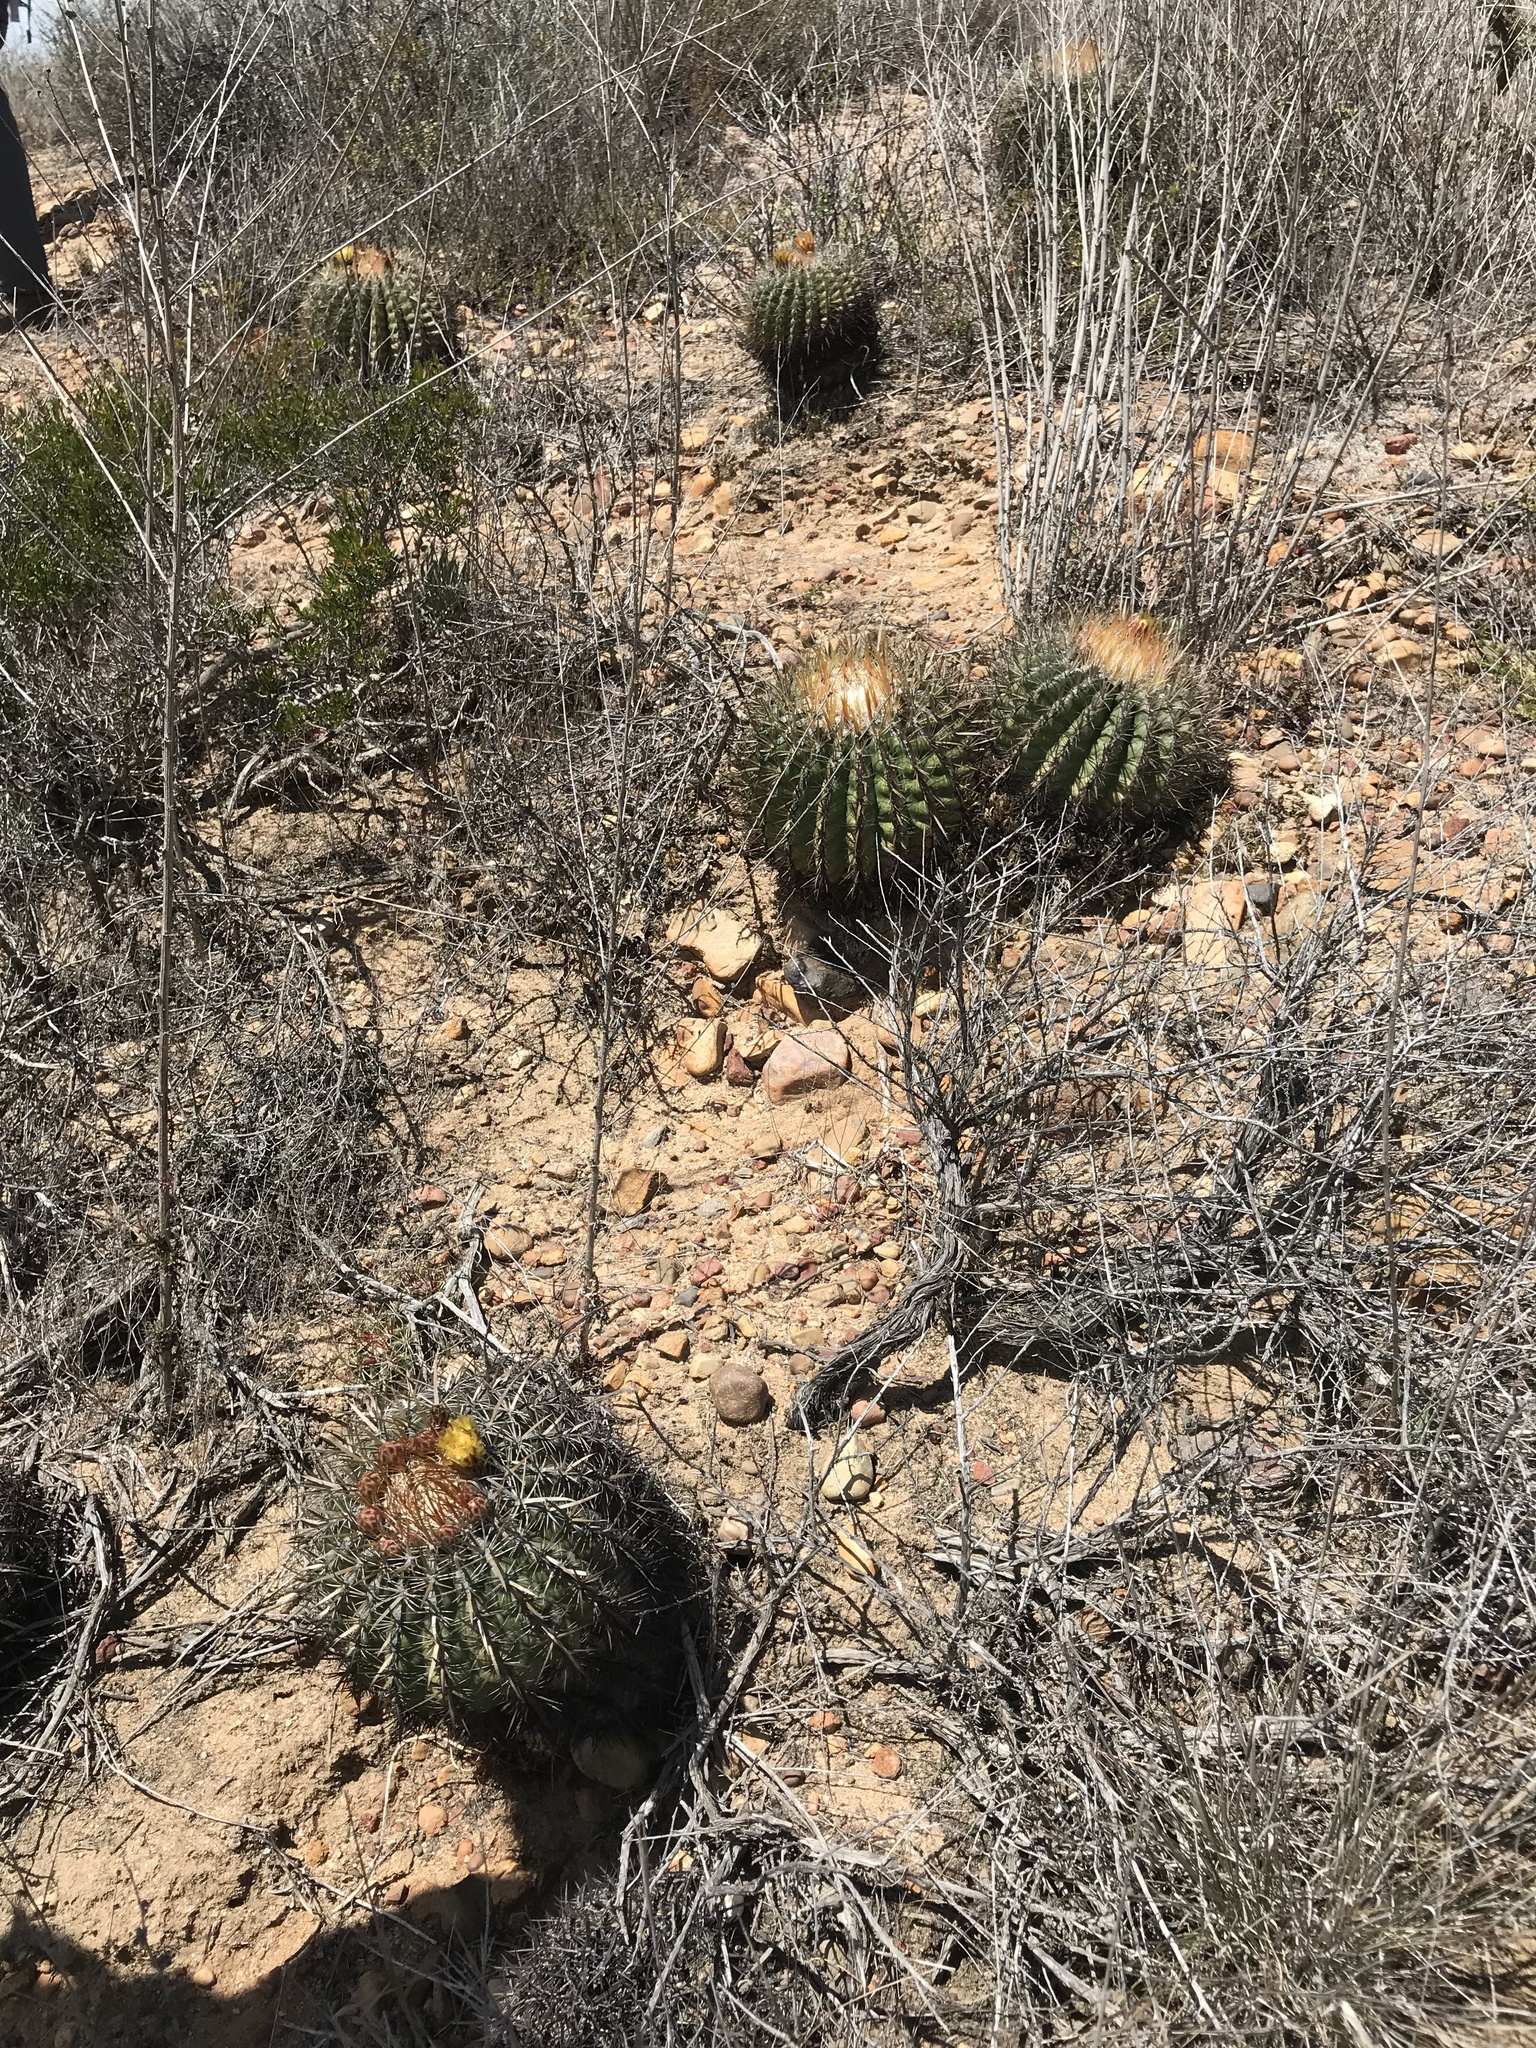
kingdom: Plantae
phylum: Tracheophyta
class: Magnoliopsida
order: Caryophyllales
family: Cactaceae
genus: Ferocactus
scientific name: Ferocactus viridescens
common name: San diego barrel cactus
